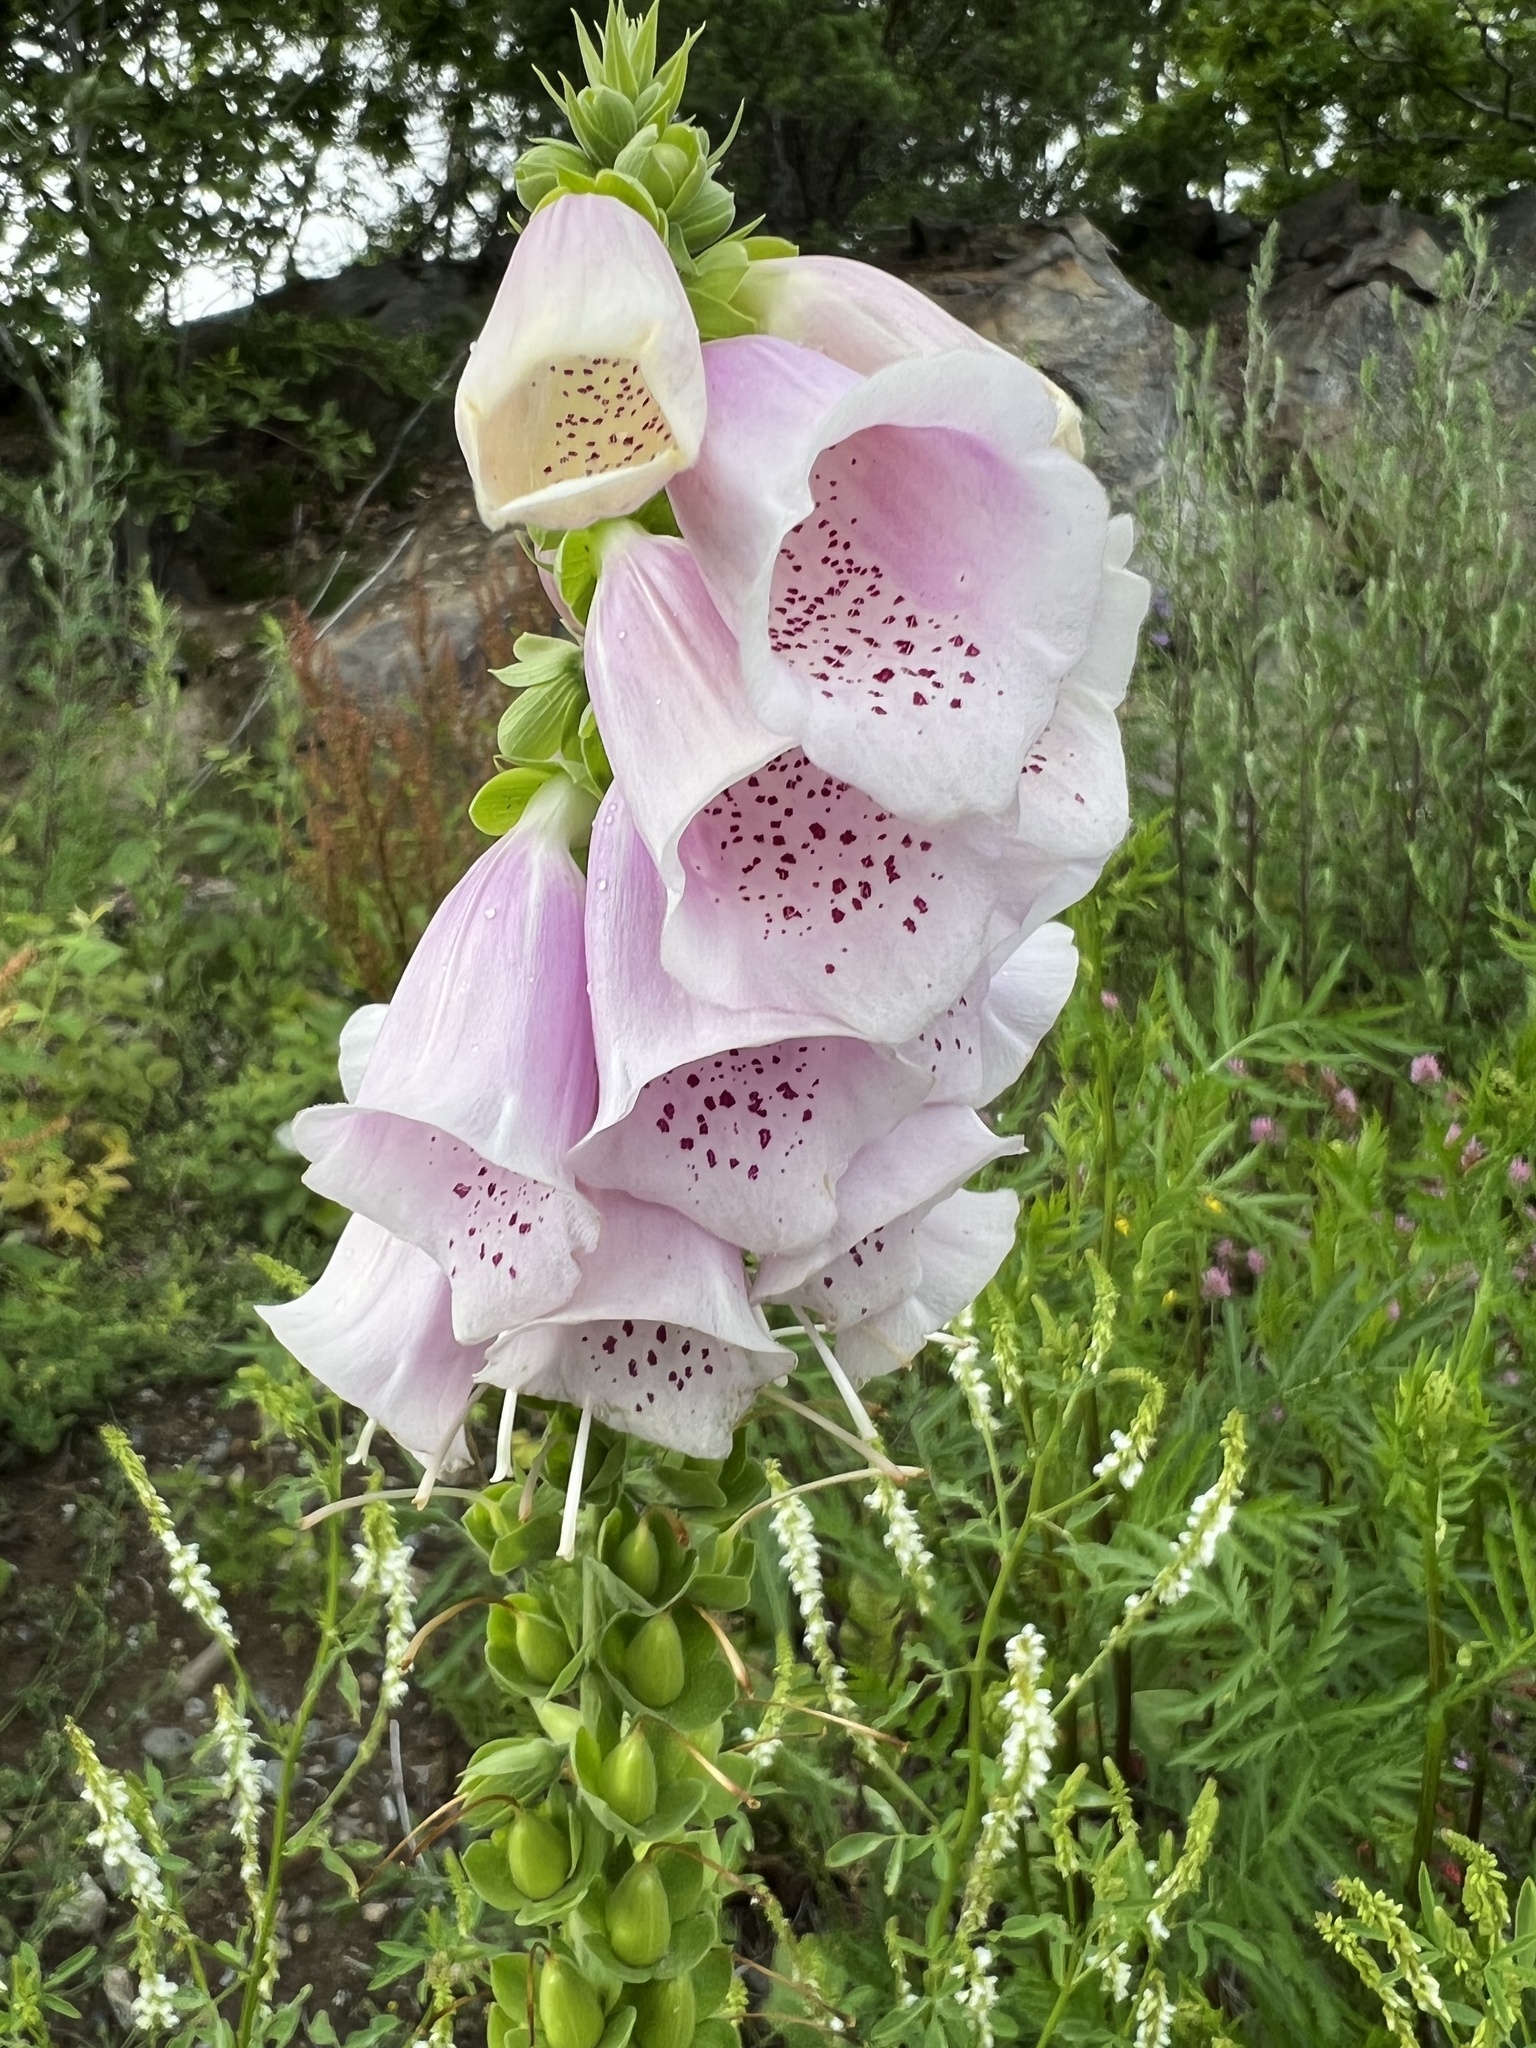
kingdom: Plantae
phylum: Tracheophyta
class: Magnoliopsida
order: Lamiales
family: Plantaginaceae
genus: Digitalis
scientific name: Digitalis purpurea
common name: Foxglove
